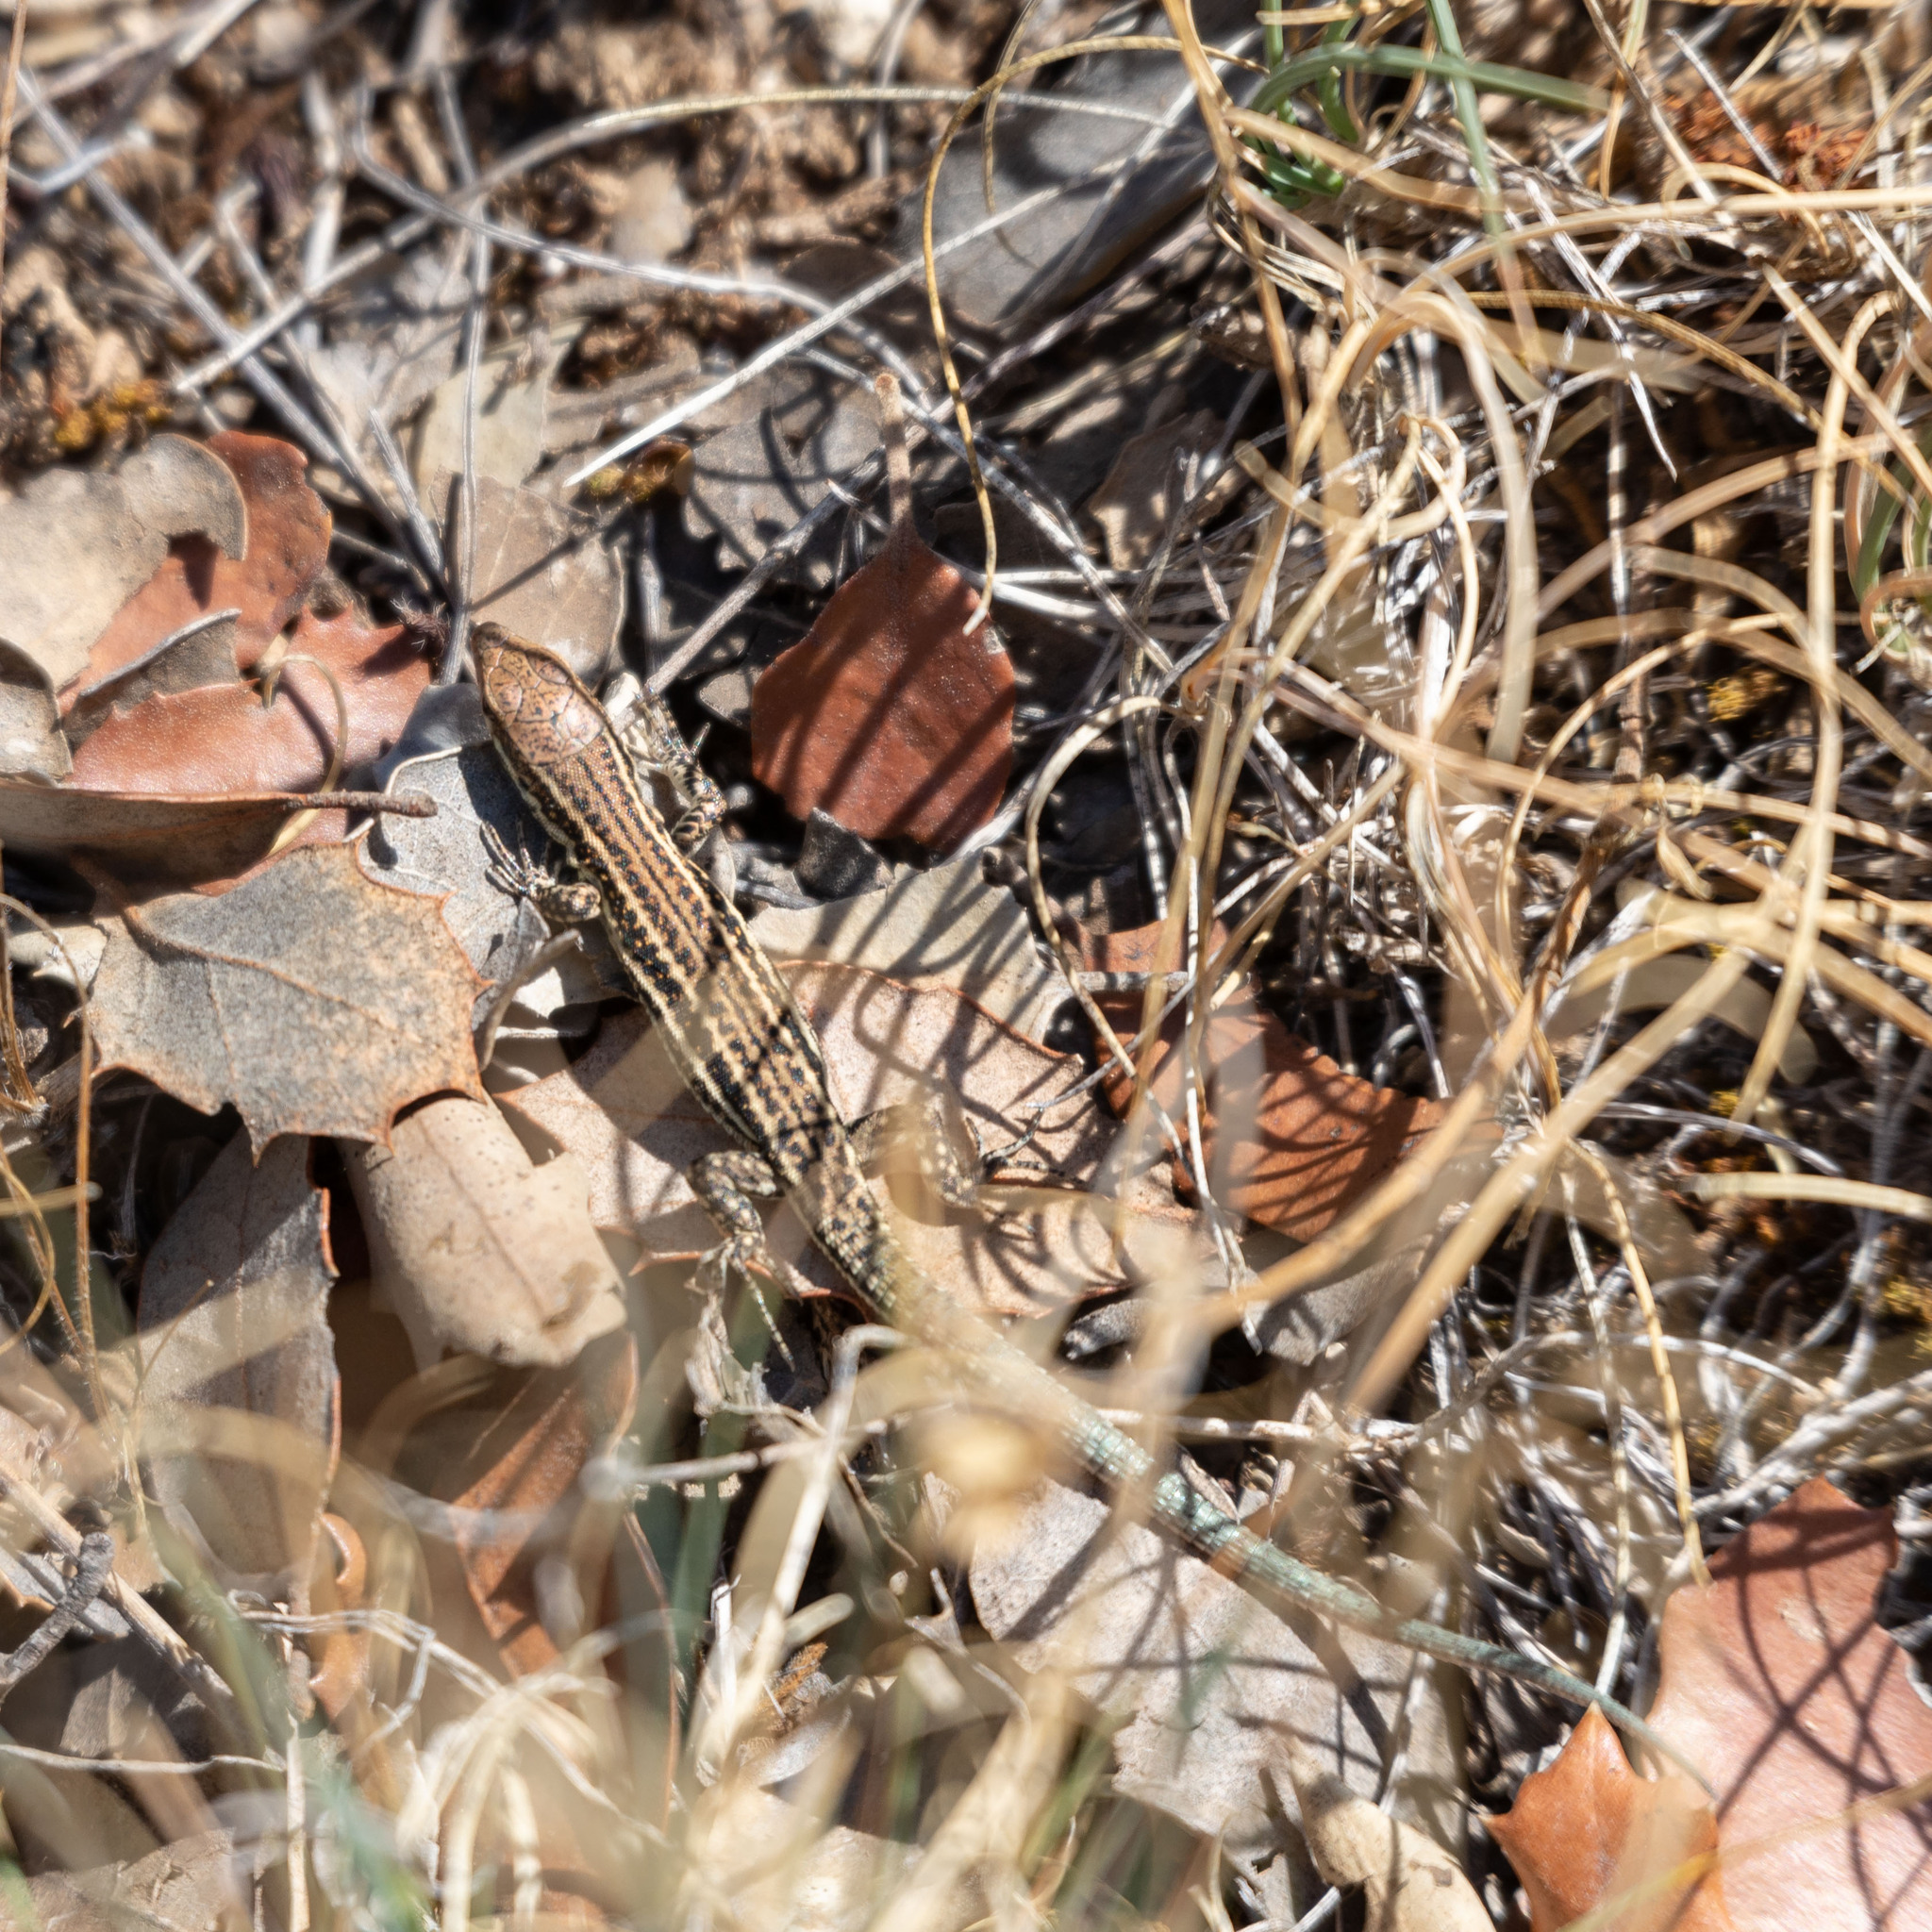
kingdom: Animalia
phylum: Chordata
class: Squamata
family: Lacertidae
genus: Podarcis
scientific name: Podarcis liolepis
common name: Catalonian wall lizard
